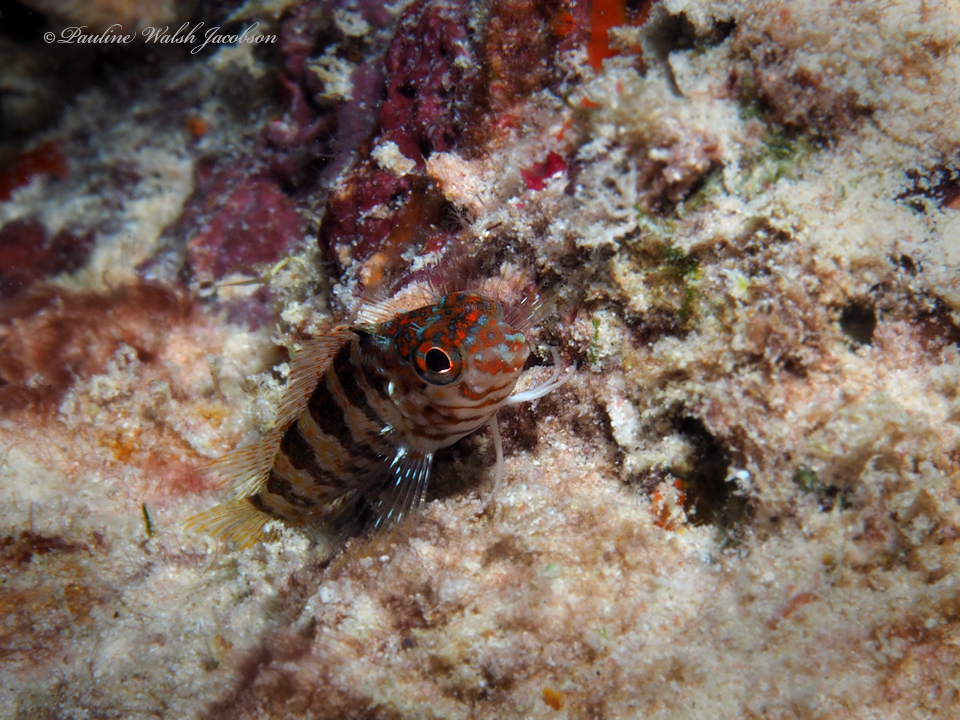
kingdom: Animalia
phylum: Chordata
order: Perciformes
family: Labrisomidae
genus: Malacoctenus
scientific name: Malacoctenus triangulatus
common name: Saddled blenny
